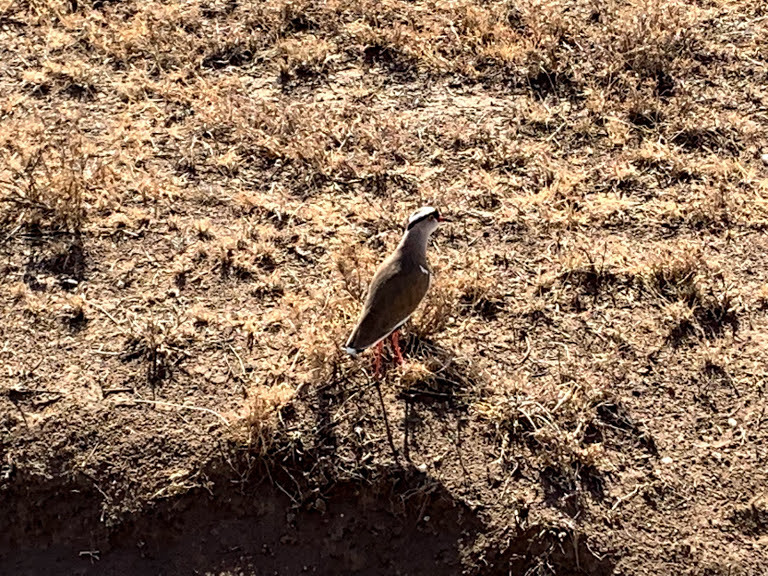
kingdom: Animalia
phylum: Chordata
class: Aves
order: Charadriiformes
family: Charadriidae
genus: Vanellus
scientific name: Vanellus coronatus
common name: Crowned lapwing
